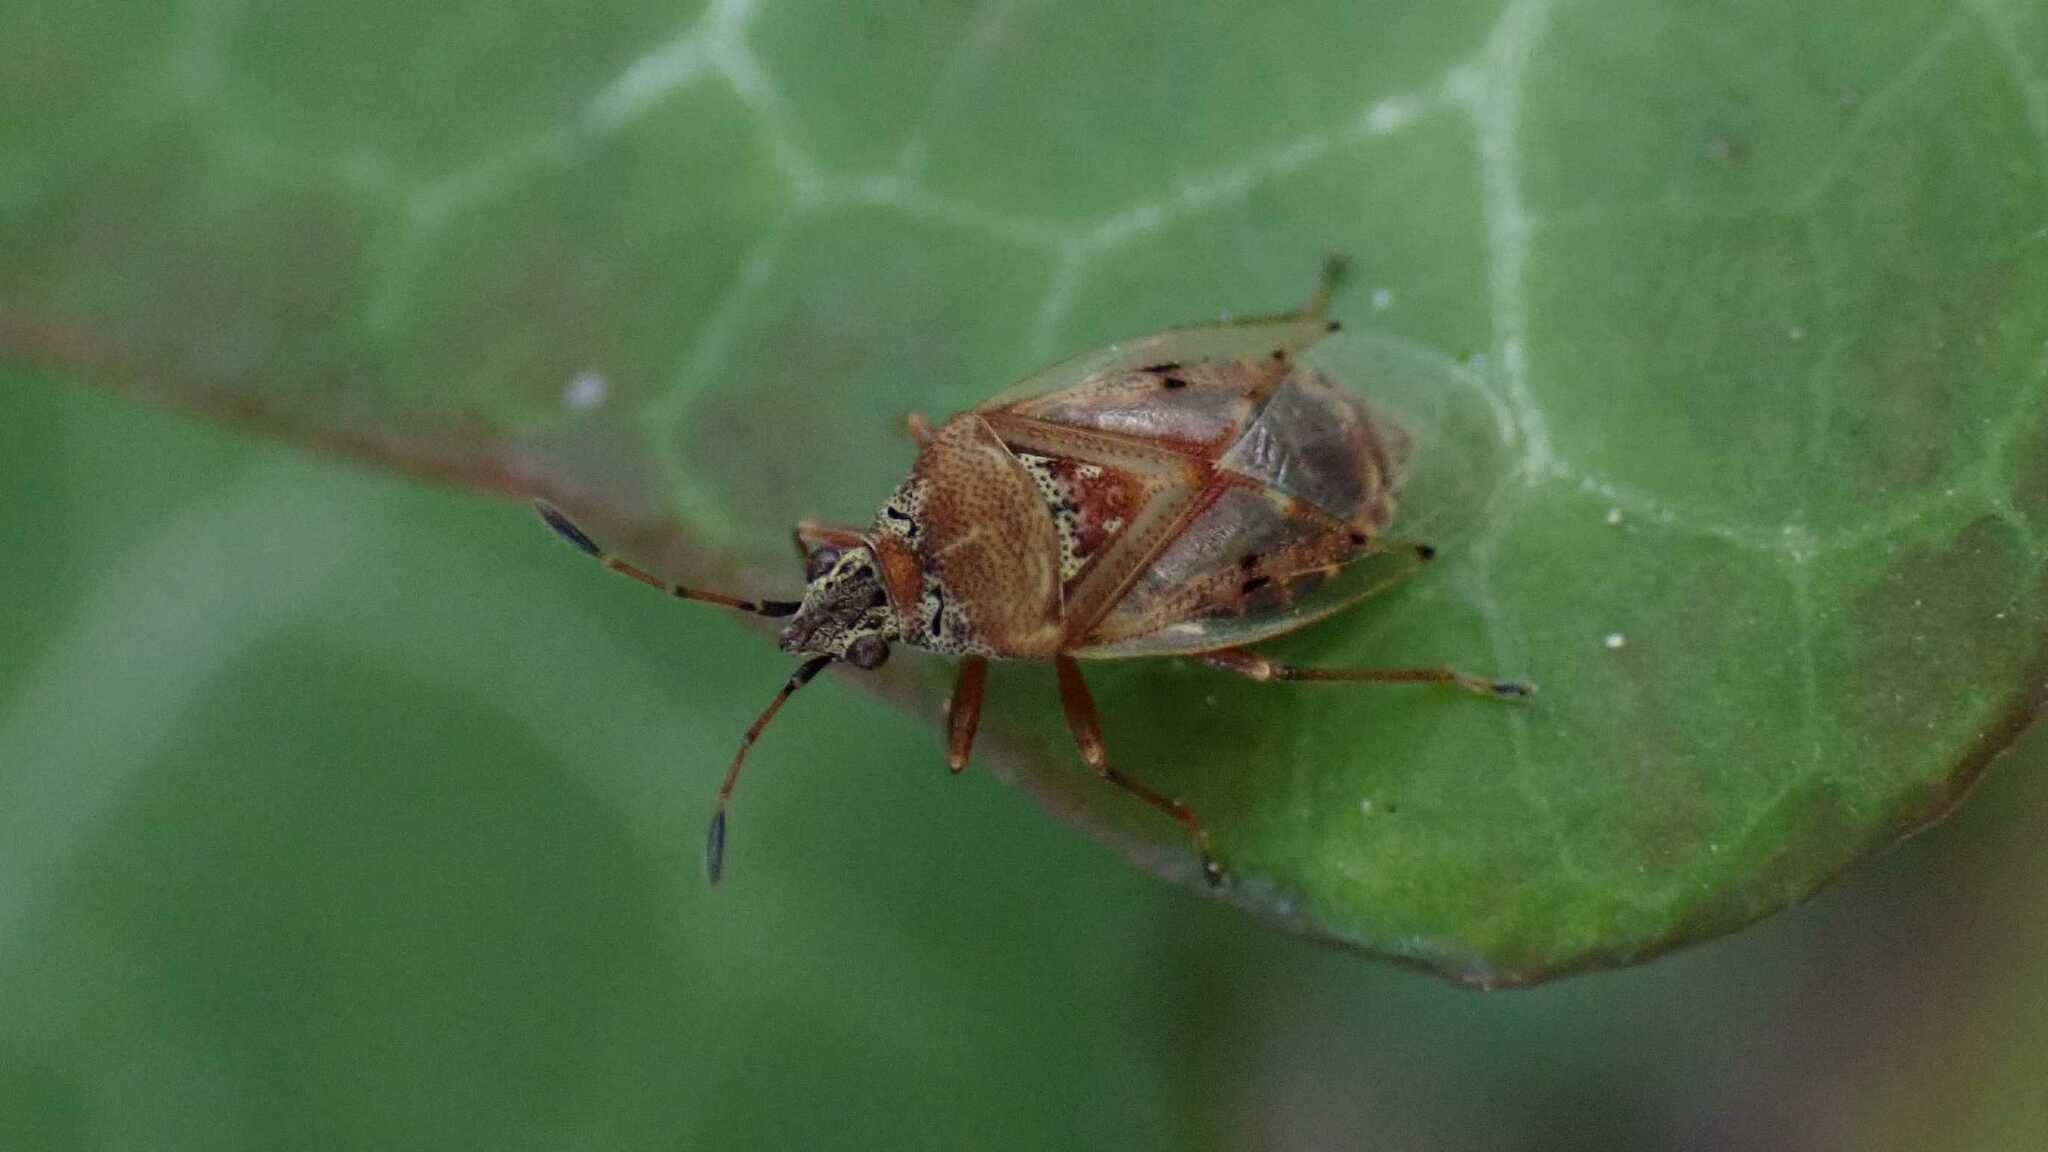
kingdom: Animalia
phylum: Arthropoda
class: Insecta
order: Hemiptera
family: Lygaeidae
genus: Kleidocerys
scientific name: Kleidocerys resedae
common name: Birch catkin bug
